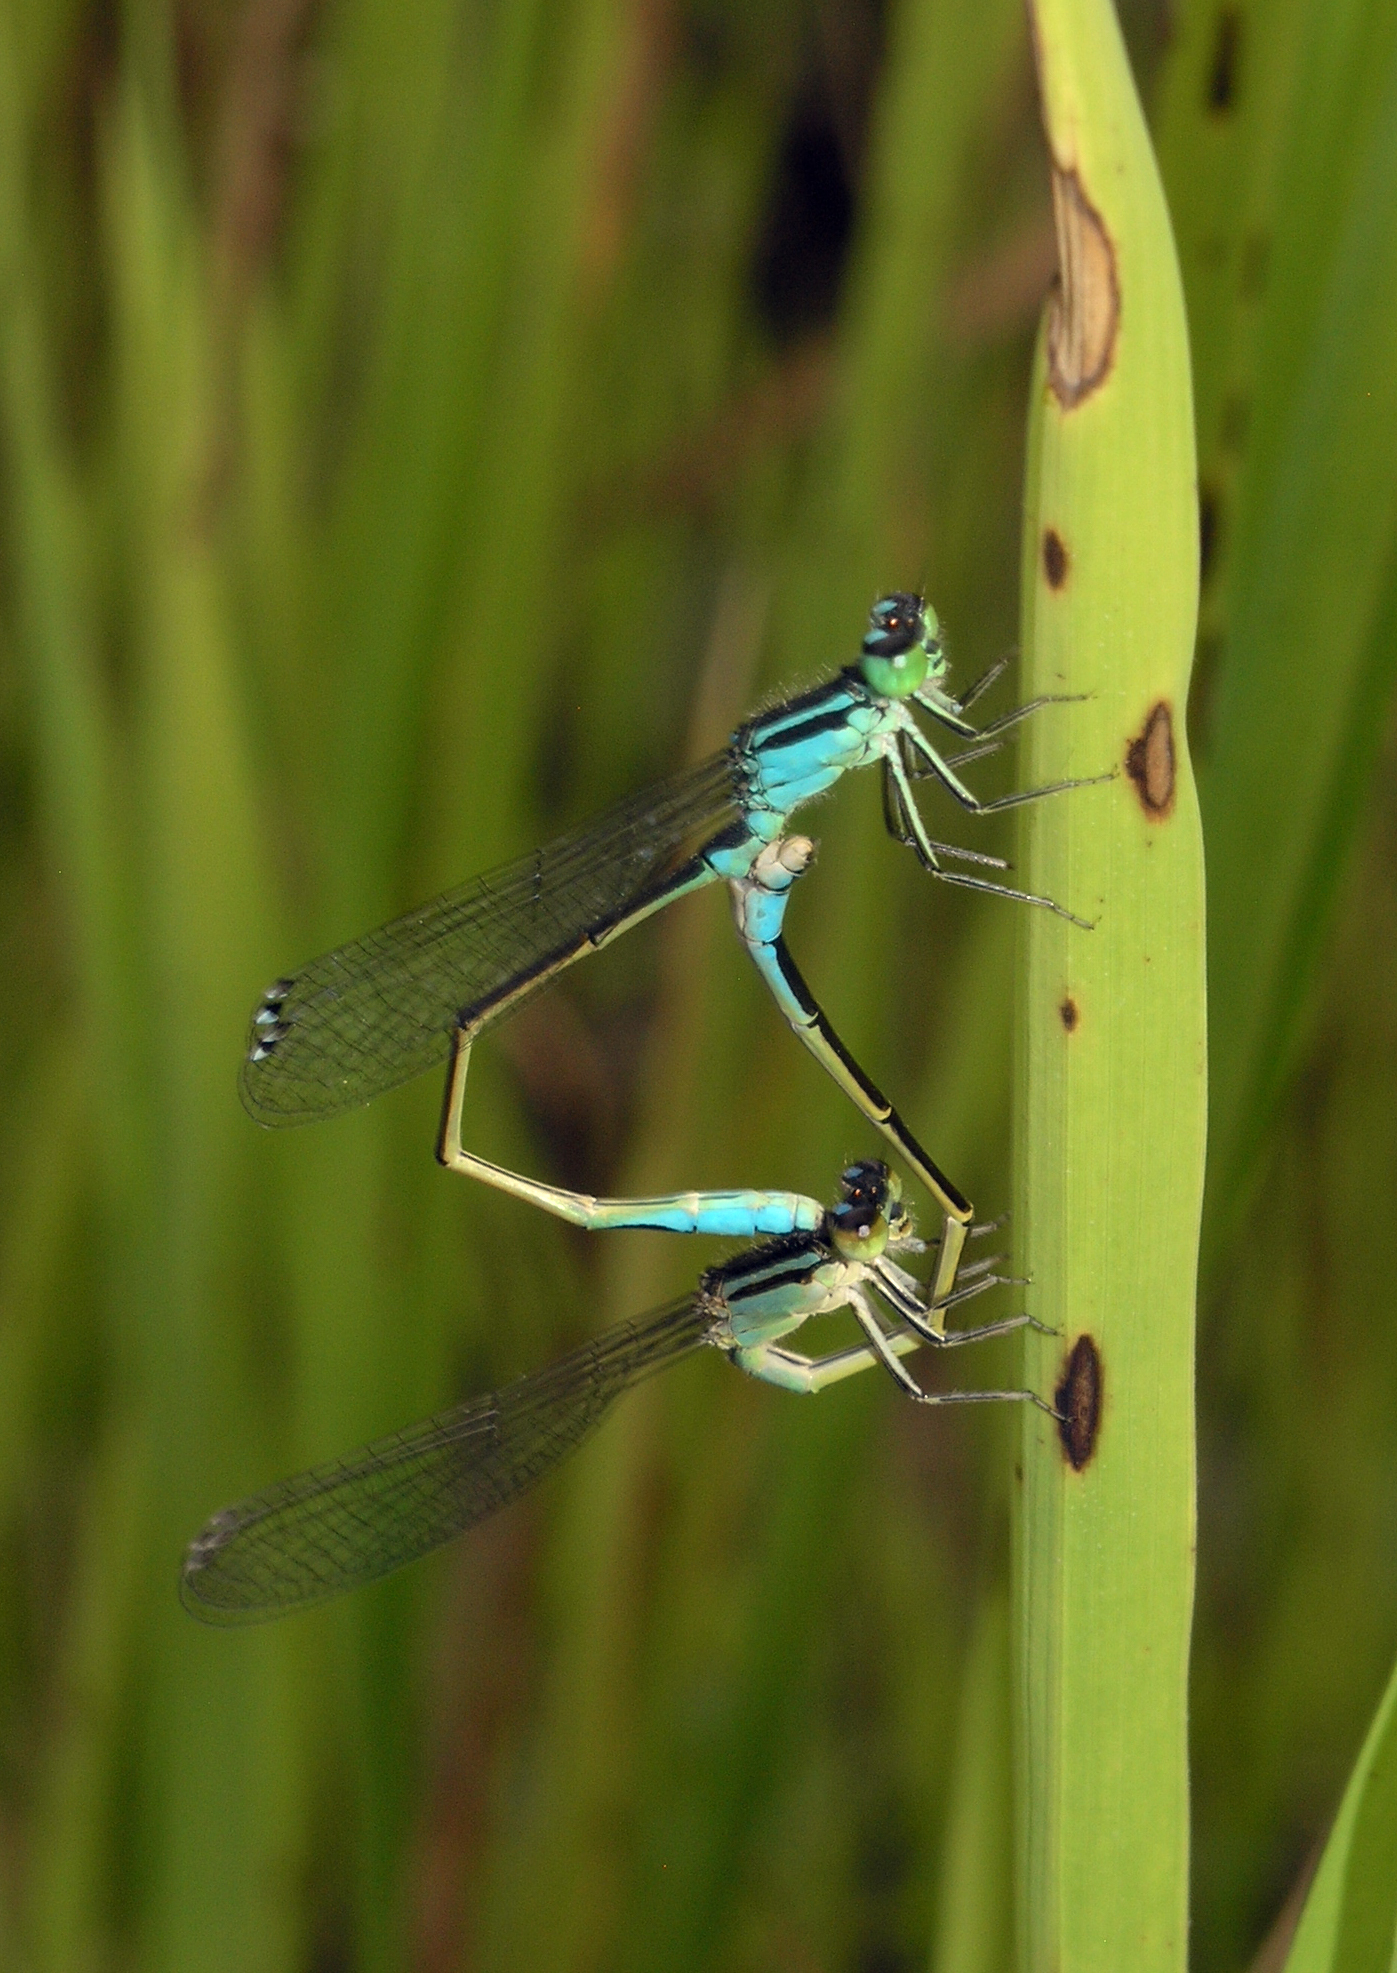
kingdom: Animalia
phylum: Arthropoda
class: Insecta
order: Odonata
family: Coenagrionidae
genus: Ischnura
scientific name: Ischnura elegans
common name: Blue-tailed damselfly
